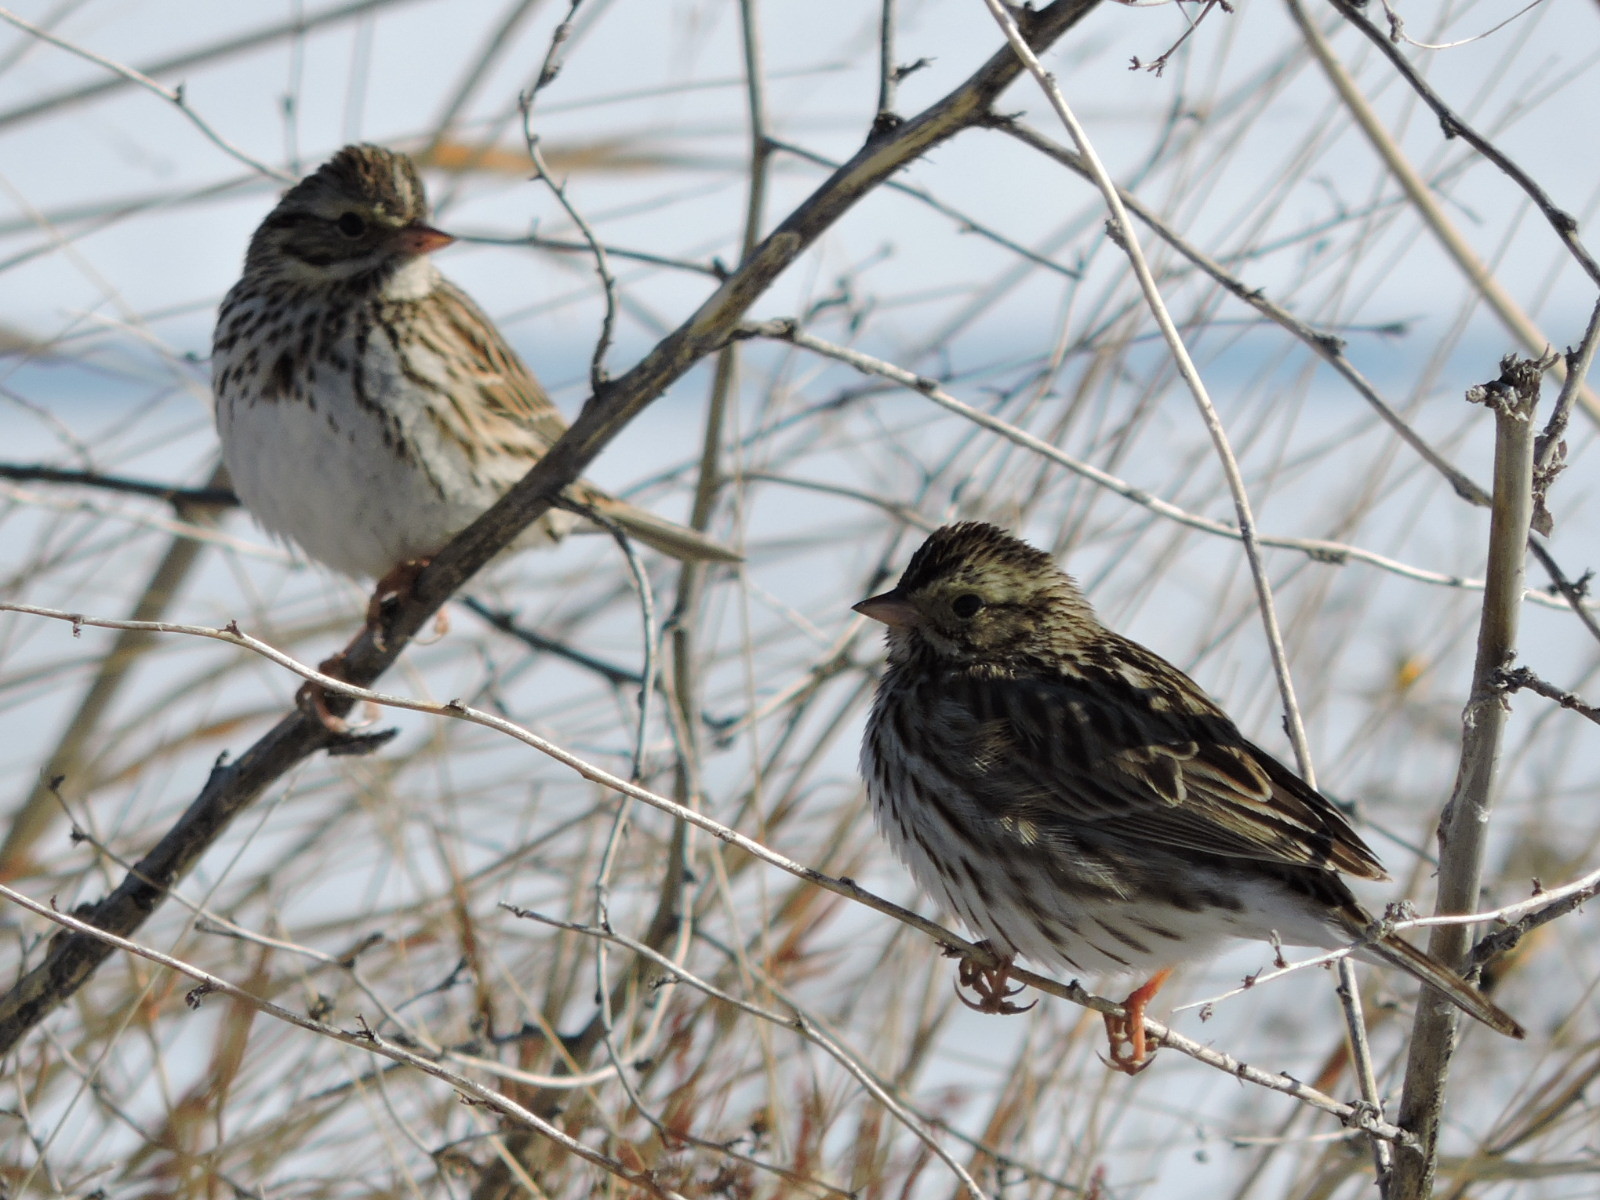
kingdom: Animalia
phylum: Chordata
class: Aves
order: Passeriformes
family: Passerellidae
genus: Passerculus
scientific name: Passerculus sandwichensis
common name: Savannah sparrow
